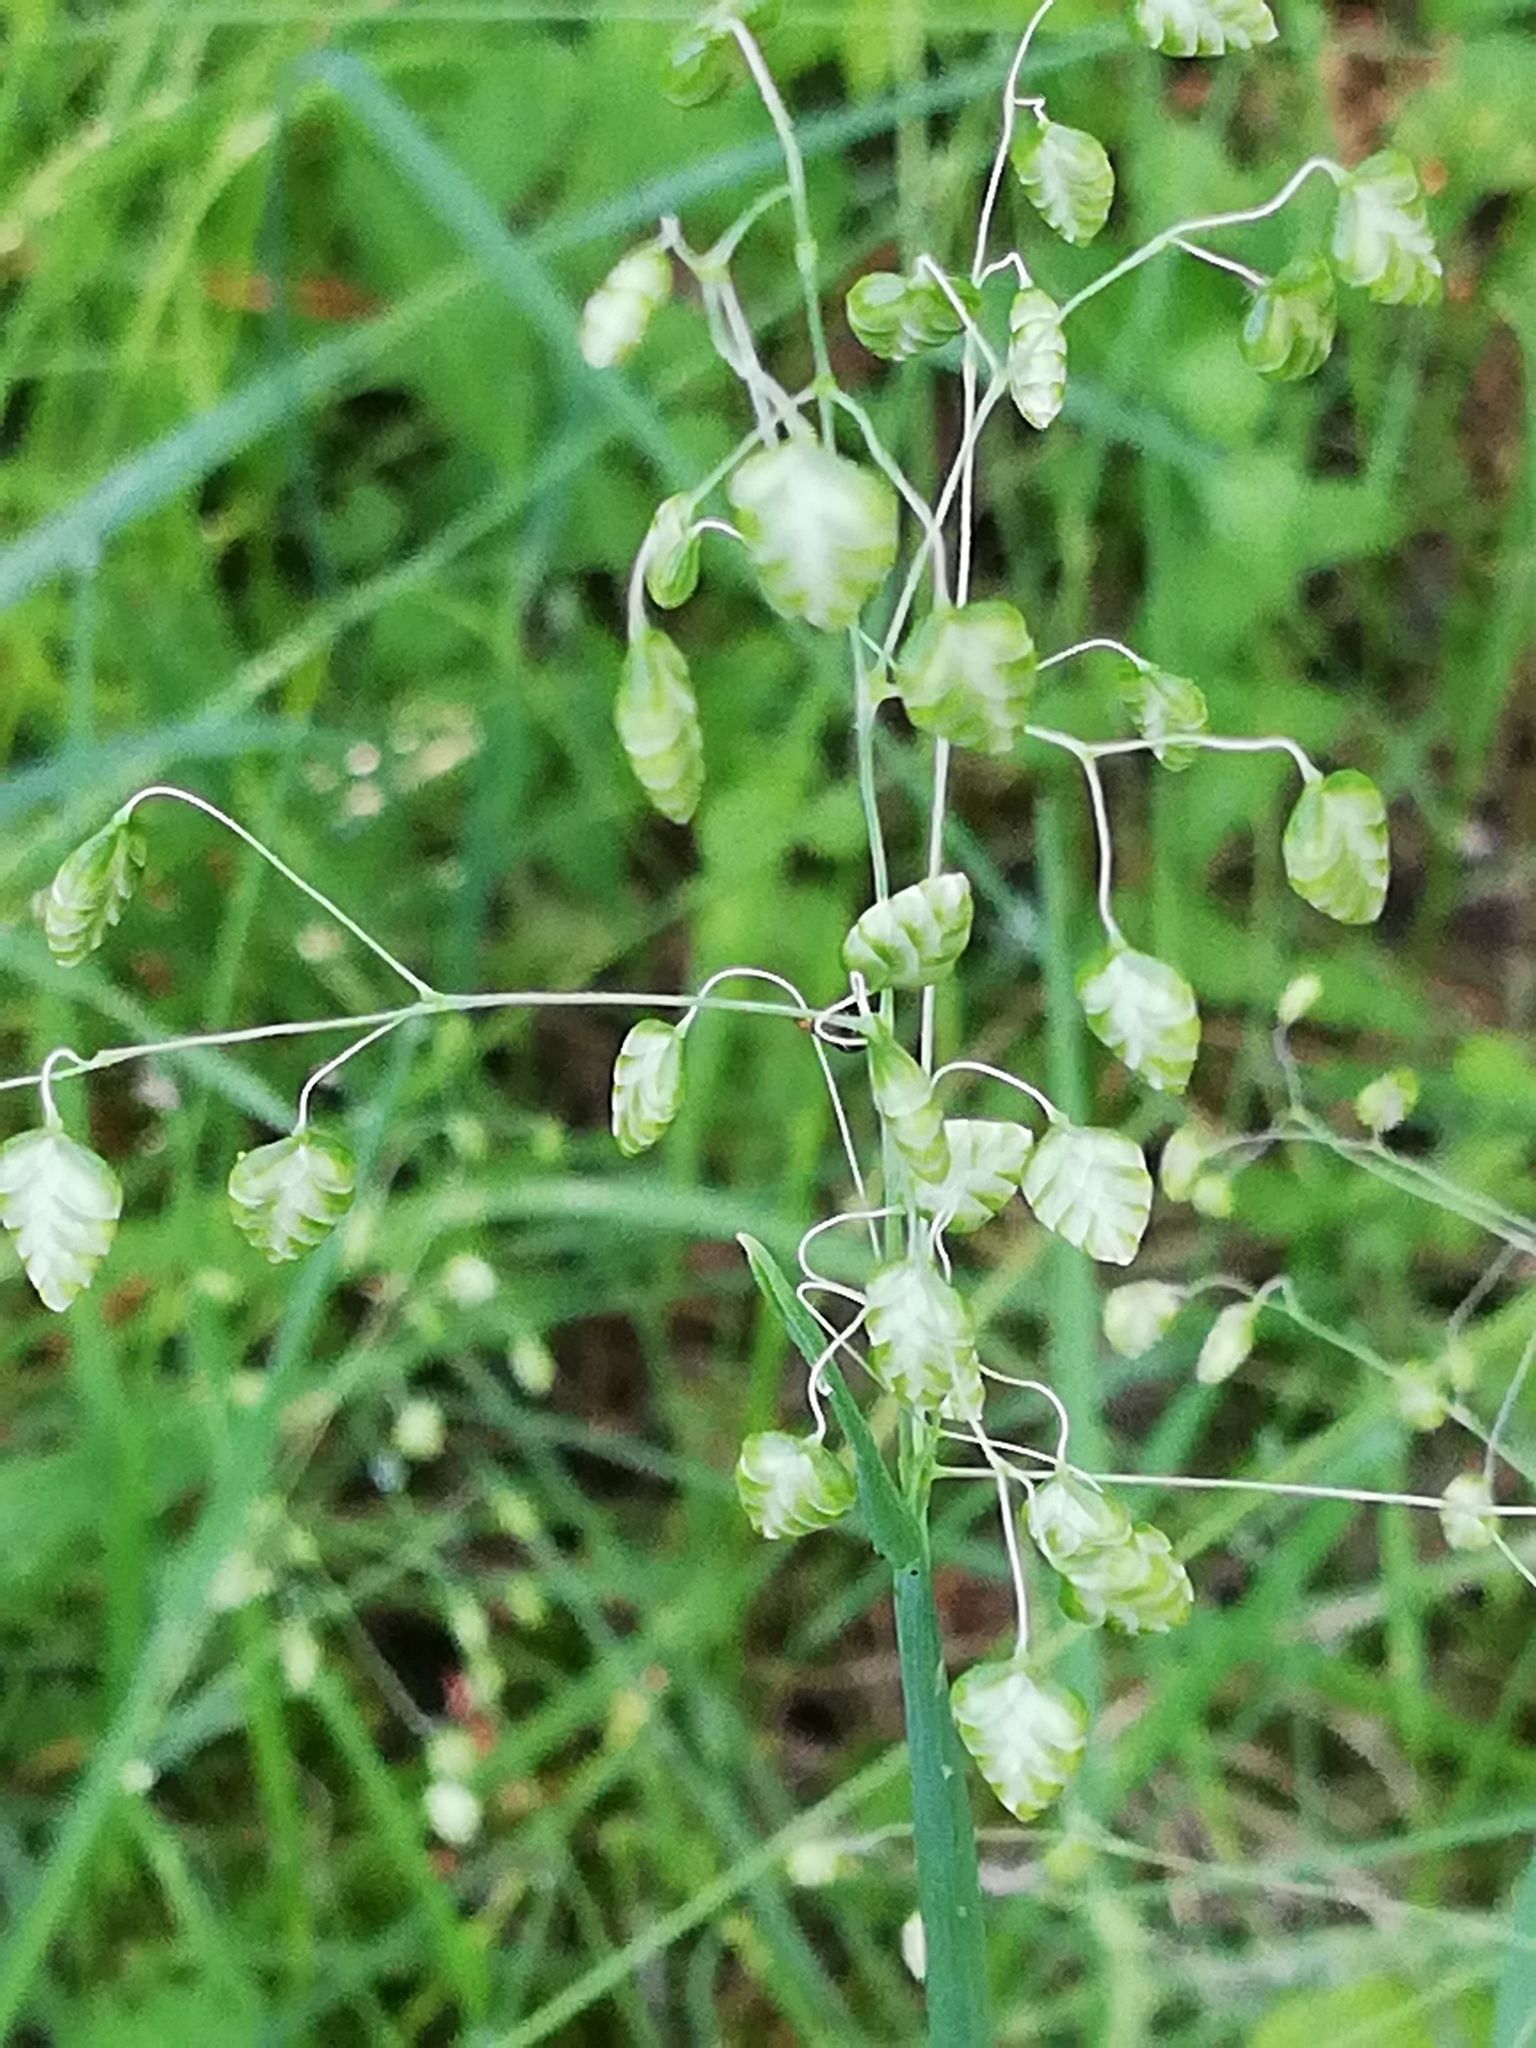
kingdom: Plantae
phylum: Tracheophyta
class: Liliopsida
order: Poales
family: Poaceae
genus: Briza
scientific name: Briza media
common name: Quaking grass
